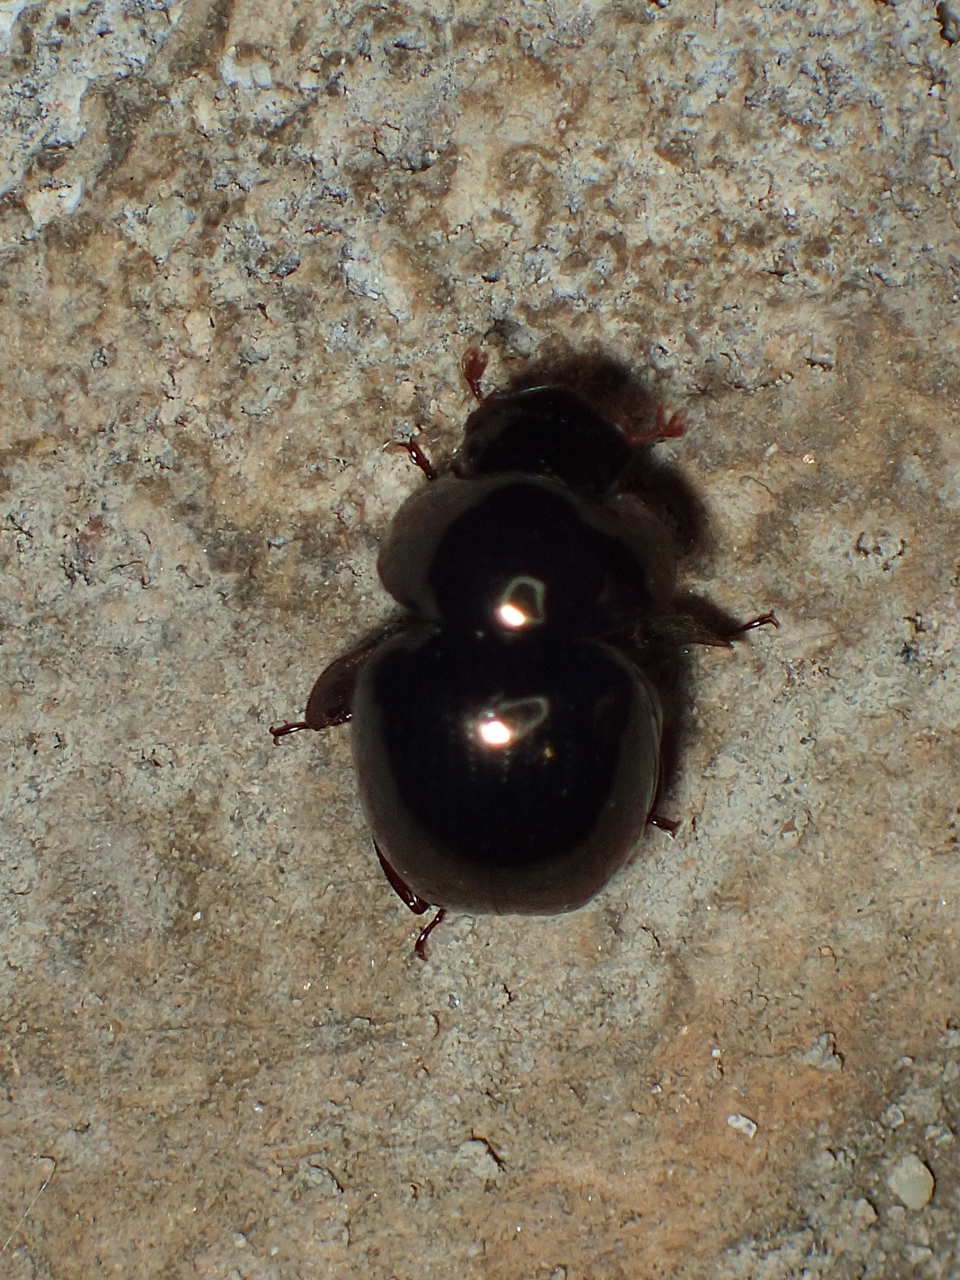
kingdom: Animalia
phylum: Arthropoda
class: Insecta
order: Coleoptera
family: Hybosoridae
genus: Ceratocanthus
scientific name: Ceratocanthus aeneus
